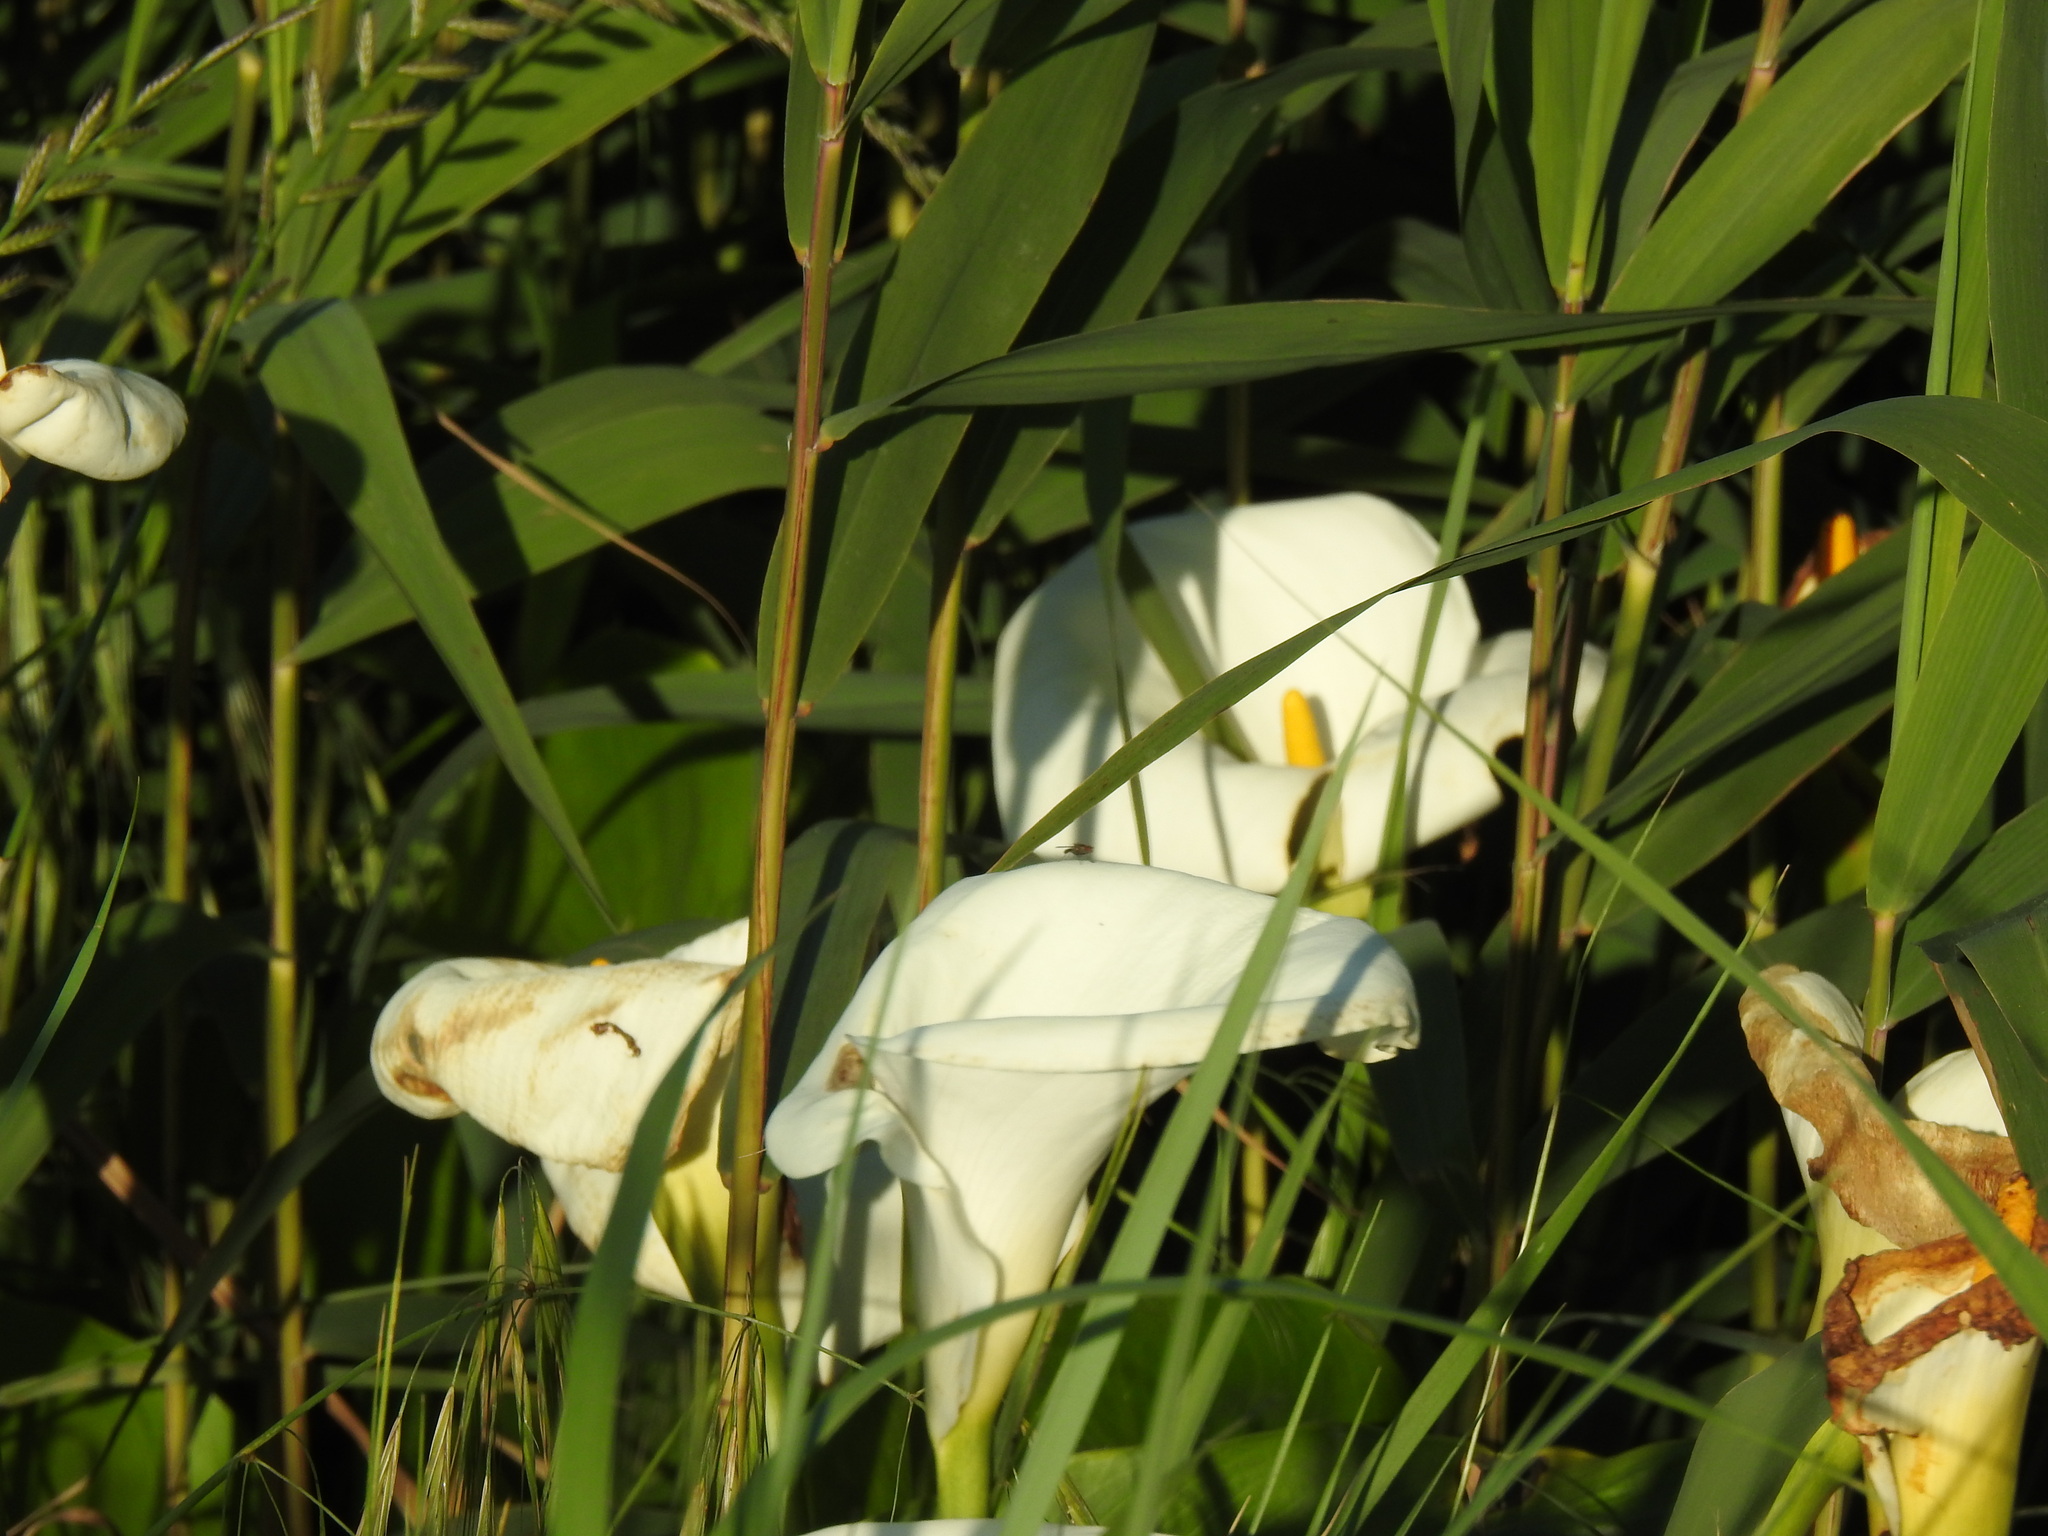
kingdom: Plantae
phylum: Tracheophyta
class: Liliopsida
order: Alismatales
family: Araceae
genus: Zantedeschia
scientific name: Zantedeschia aethiopica
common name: Altar-lily
